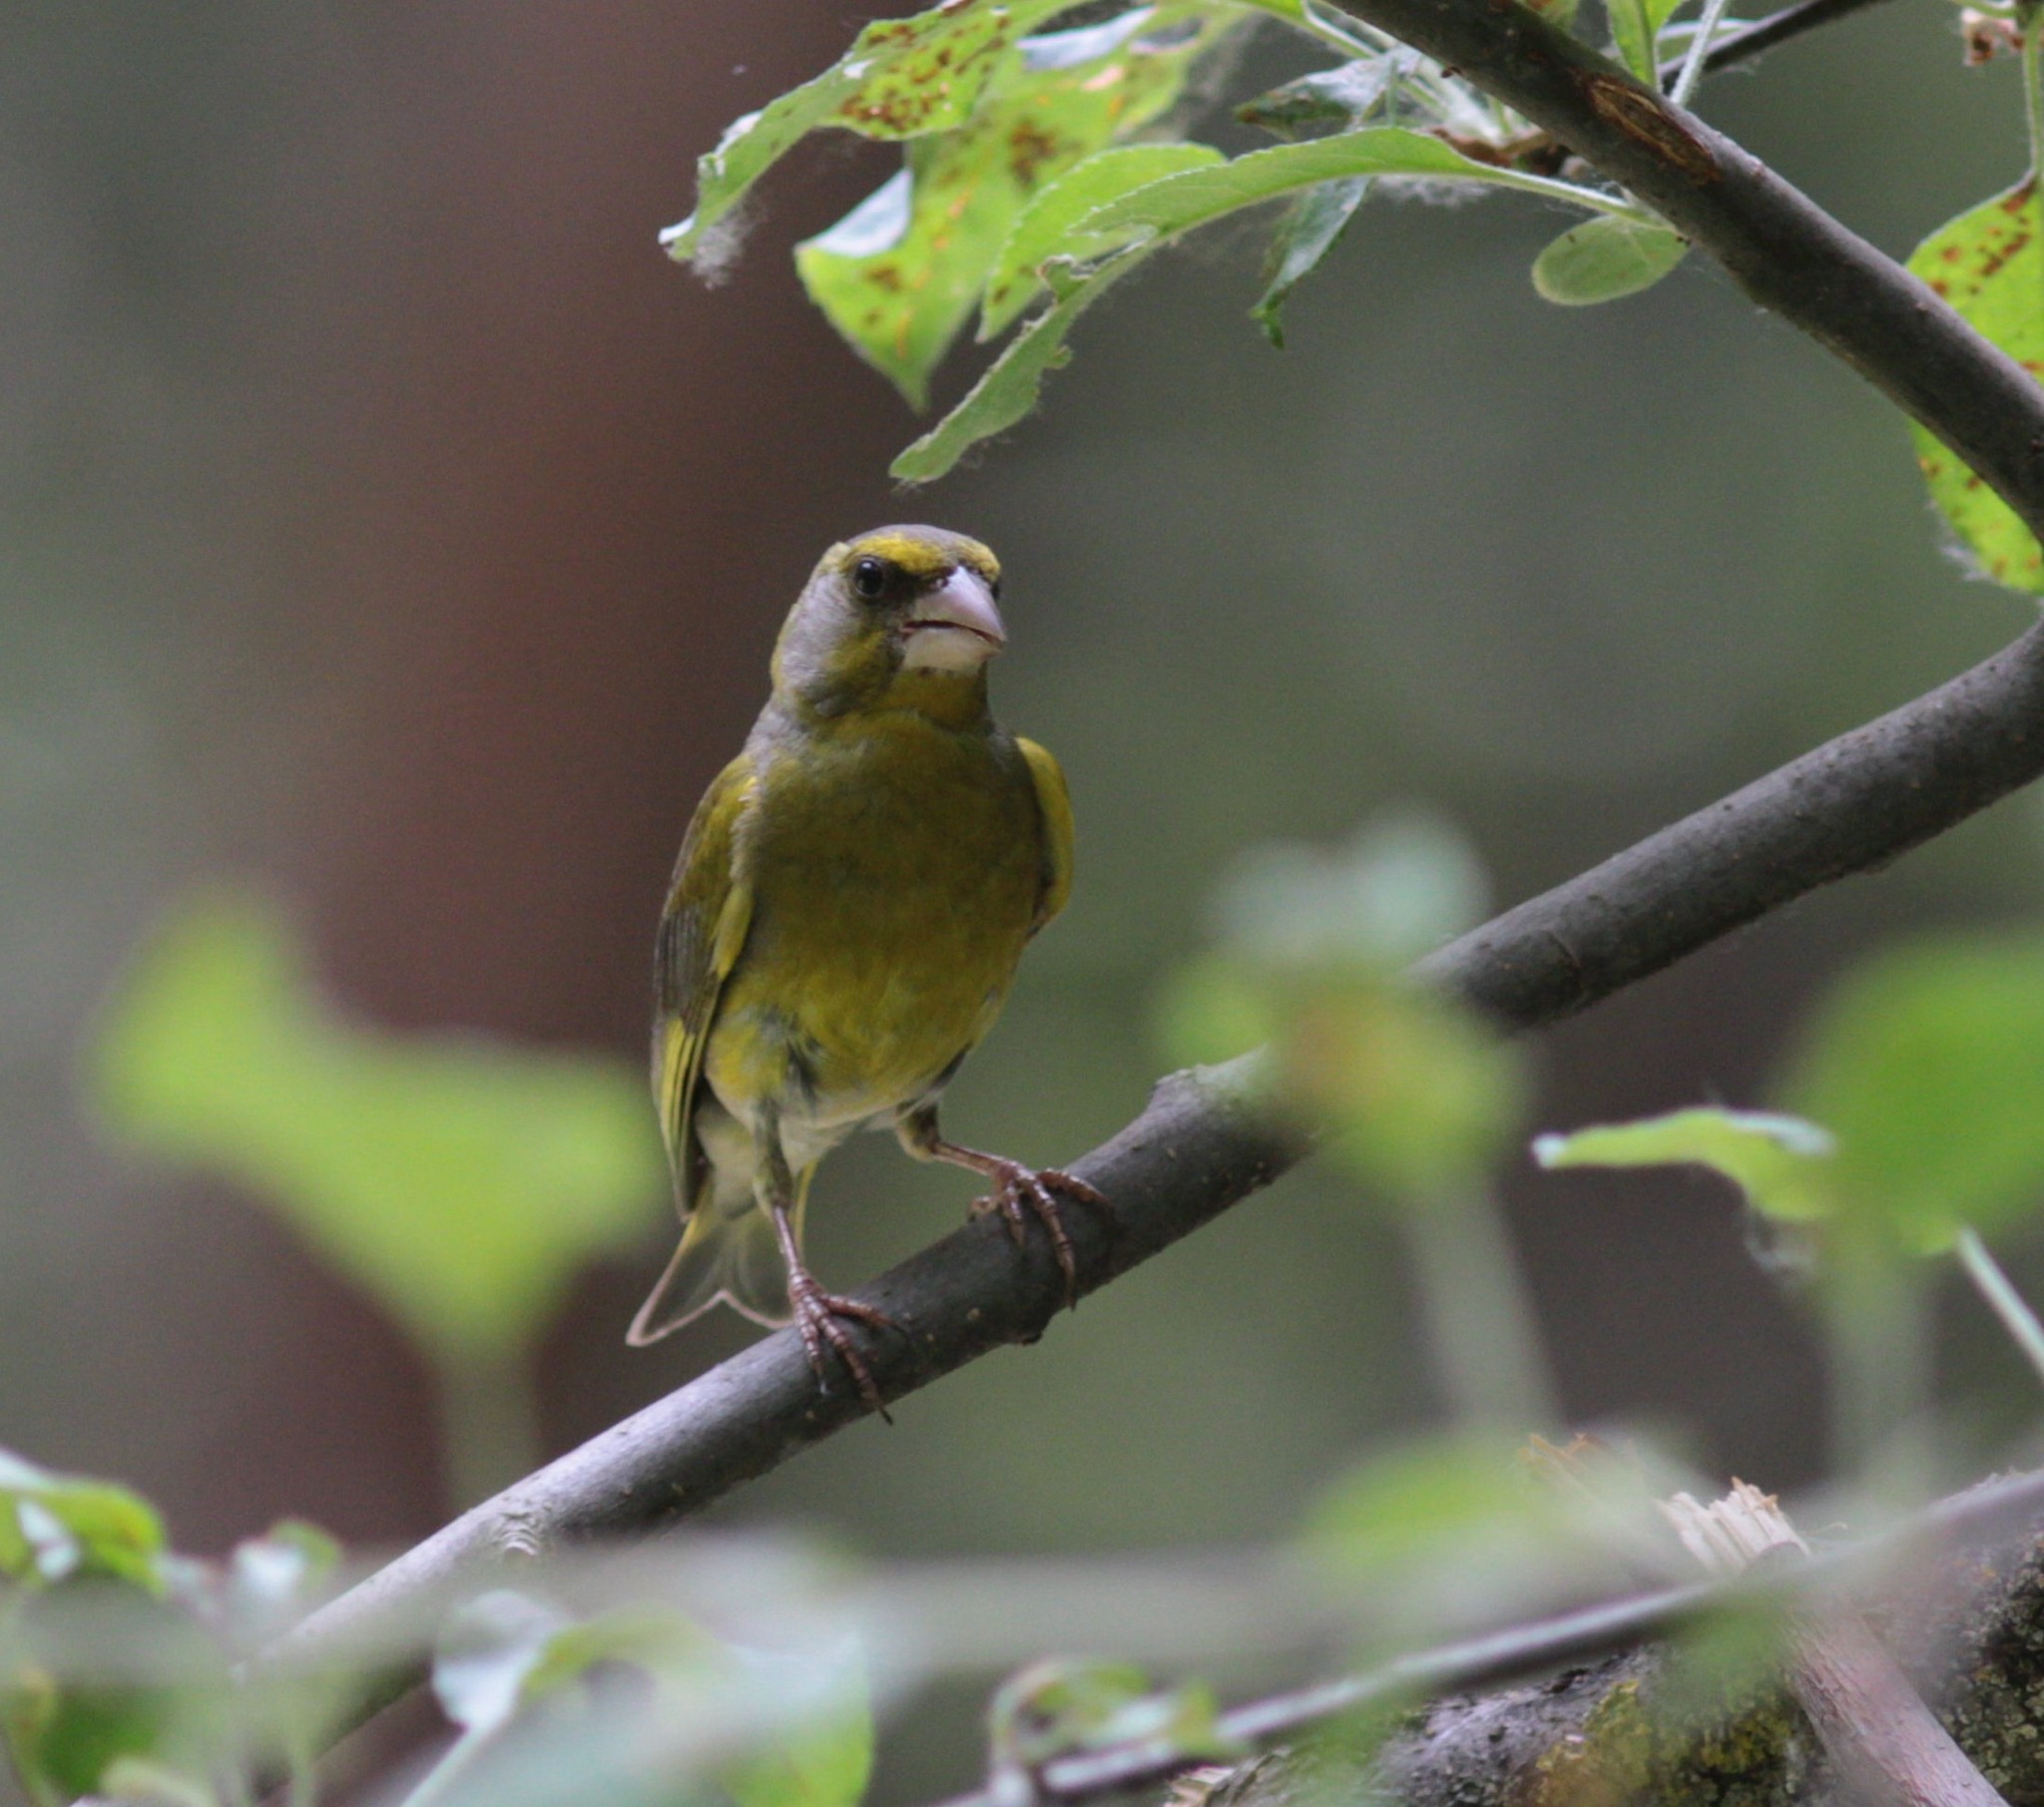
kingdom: Plantae
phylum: Tracheophyta
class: Liliopsida
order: Poales
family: Poaceae
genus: Chloris
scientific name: Chloris chloris
